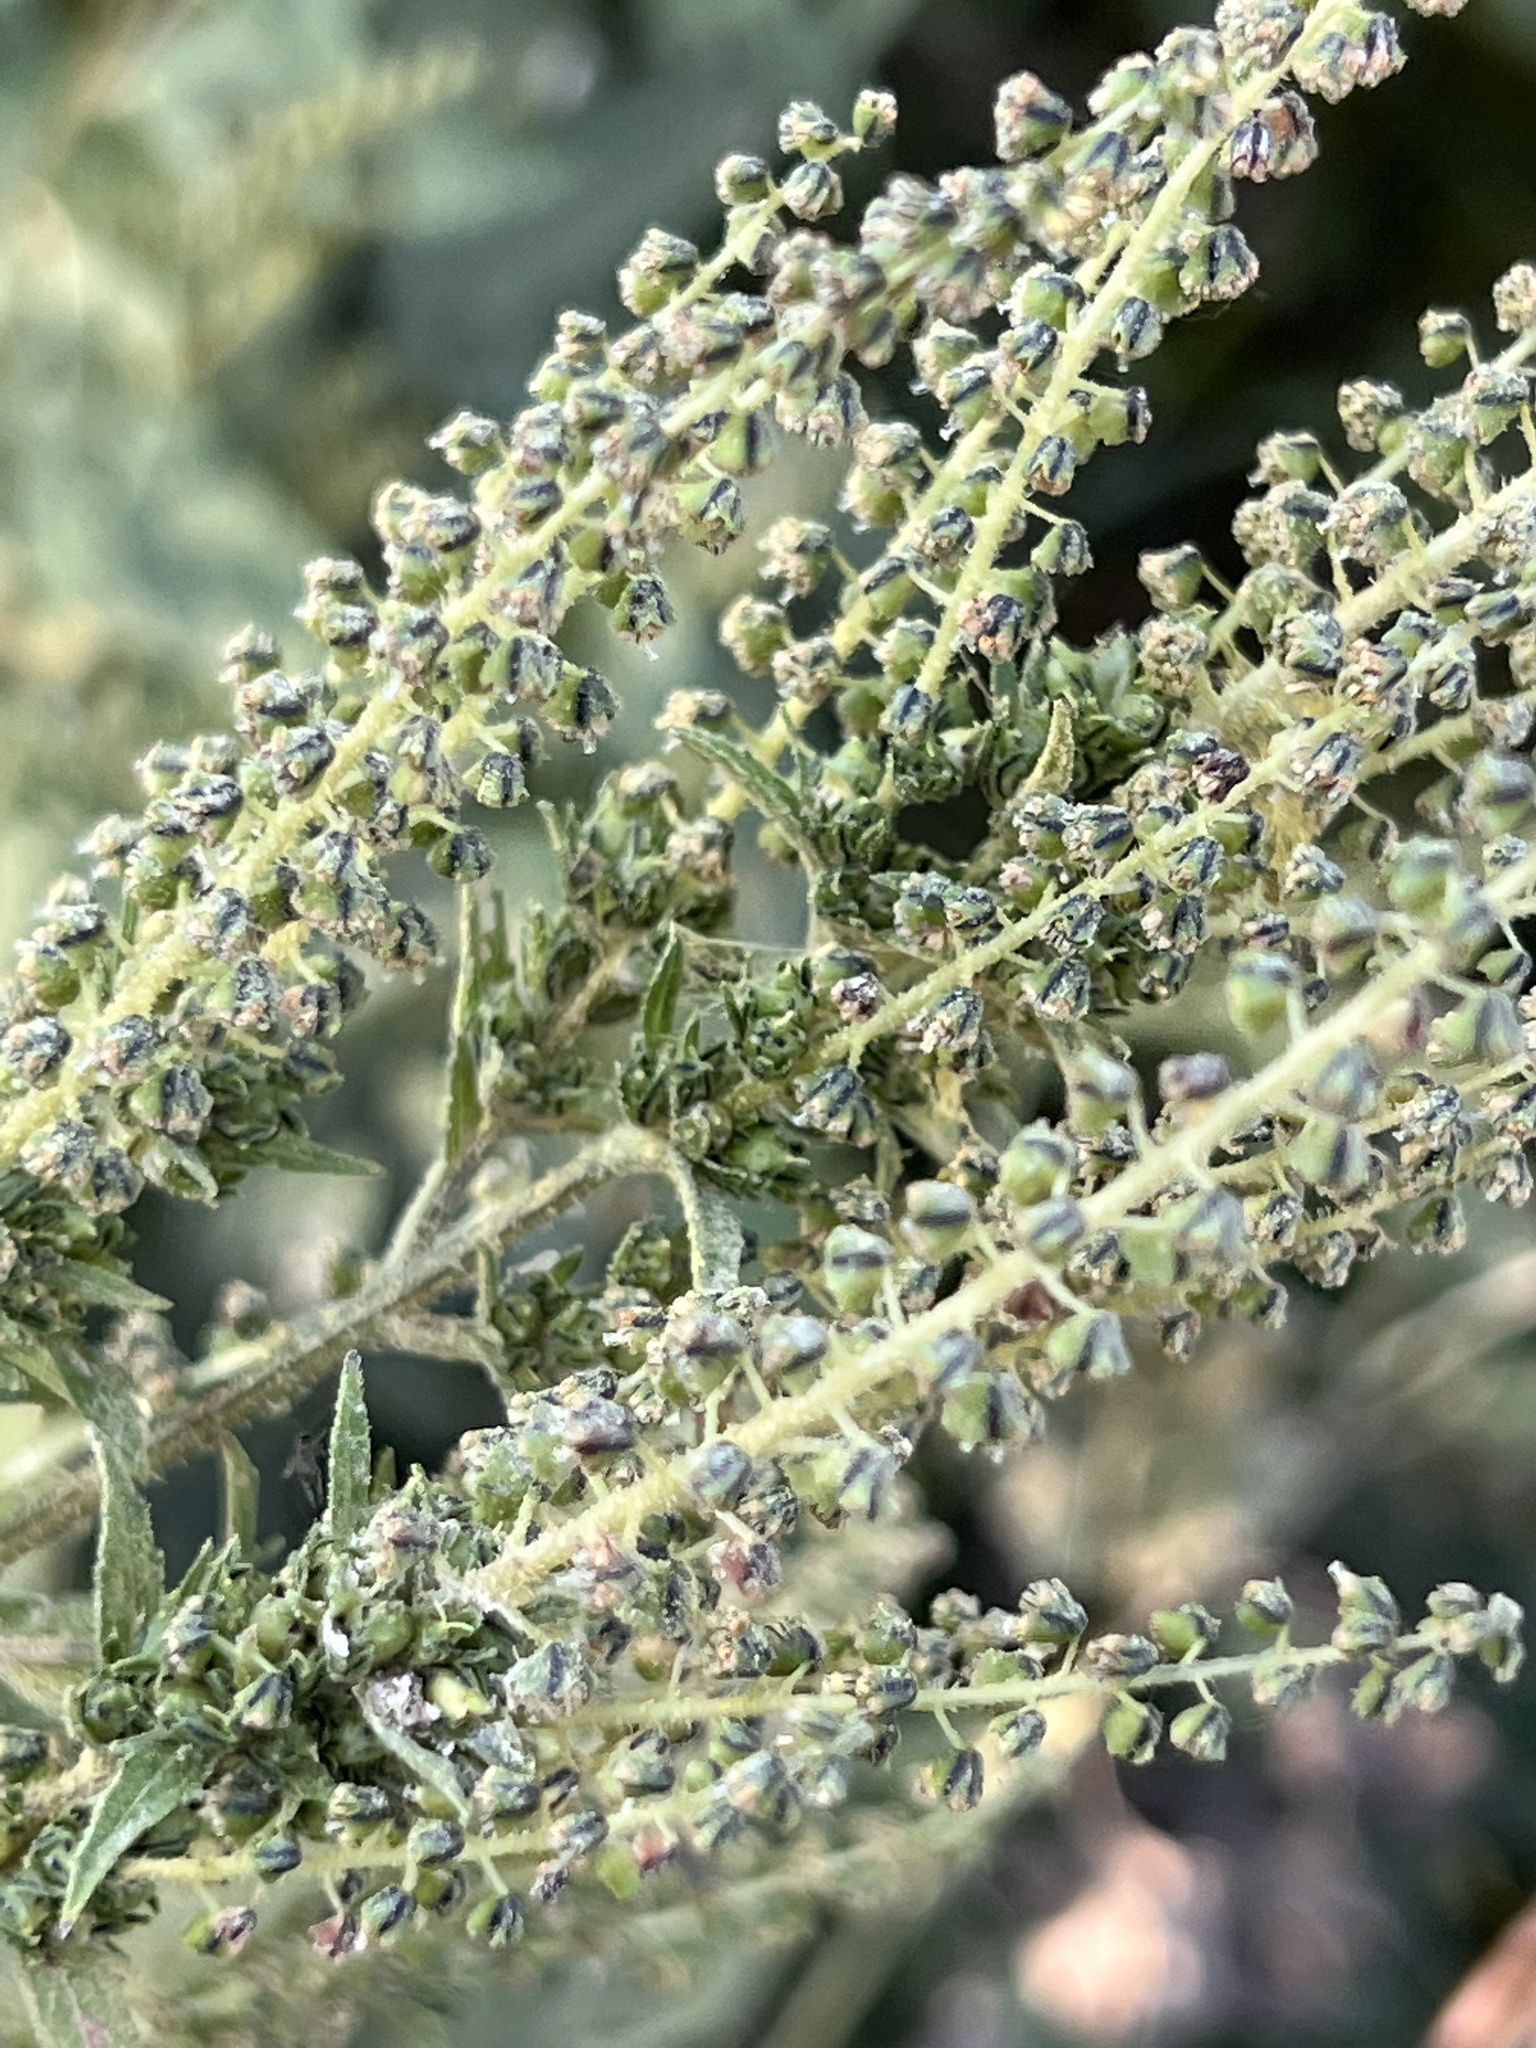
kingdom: Plantae
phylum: Tracheophyta
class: Magnoliopsida
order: Asterales
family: Asteraceae
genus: Ambrosia
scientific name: Ambrosia trifida
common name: Giant ragweed
